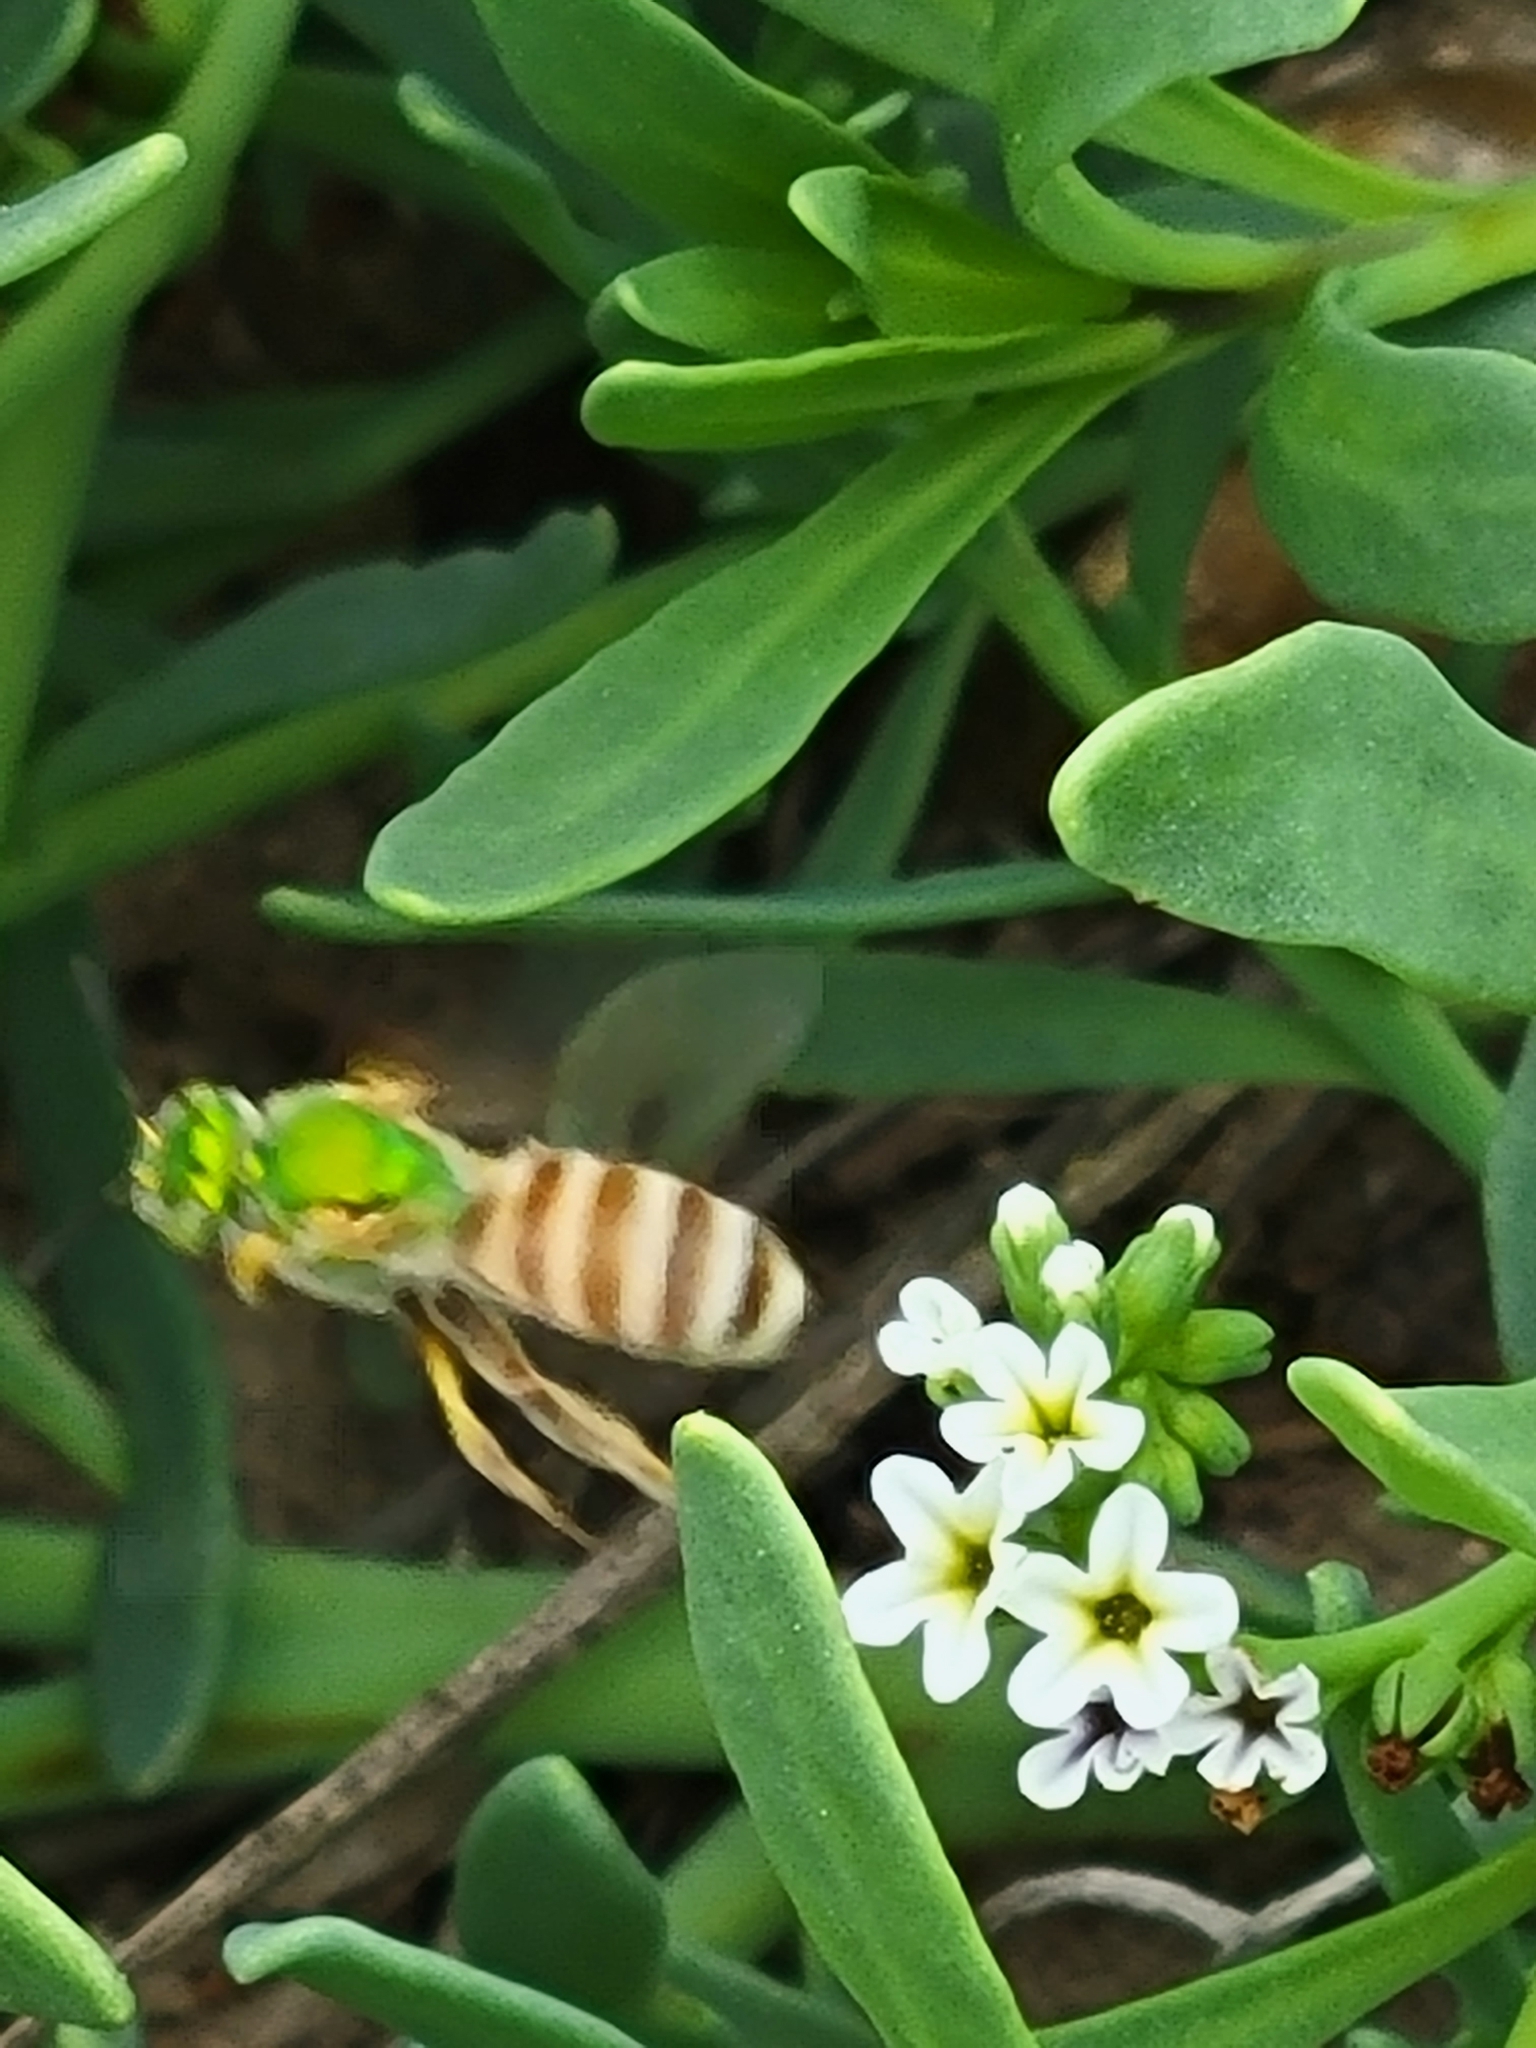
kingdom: Animalia
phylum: Arthropoda
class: Insecta
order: Hymenoptera
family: Halictidae
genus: Agapostemon
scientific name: Agapostemon melliventris
